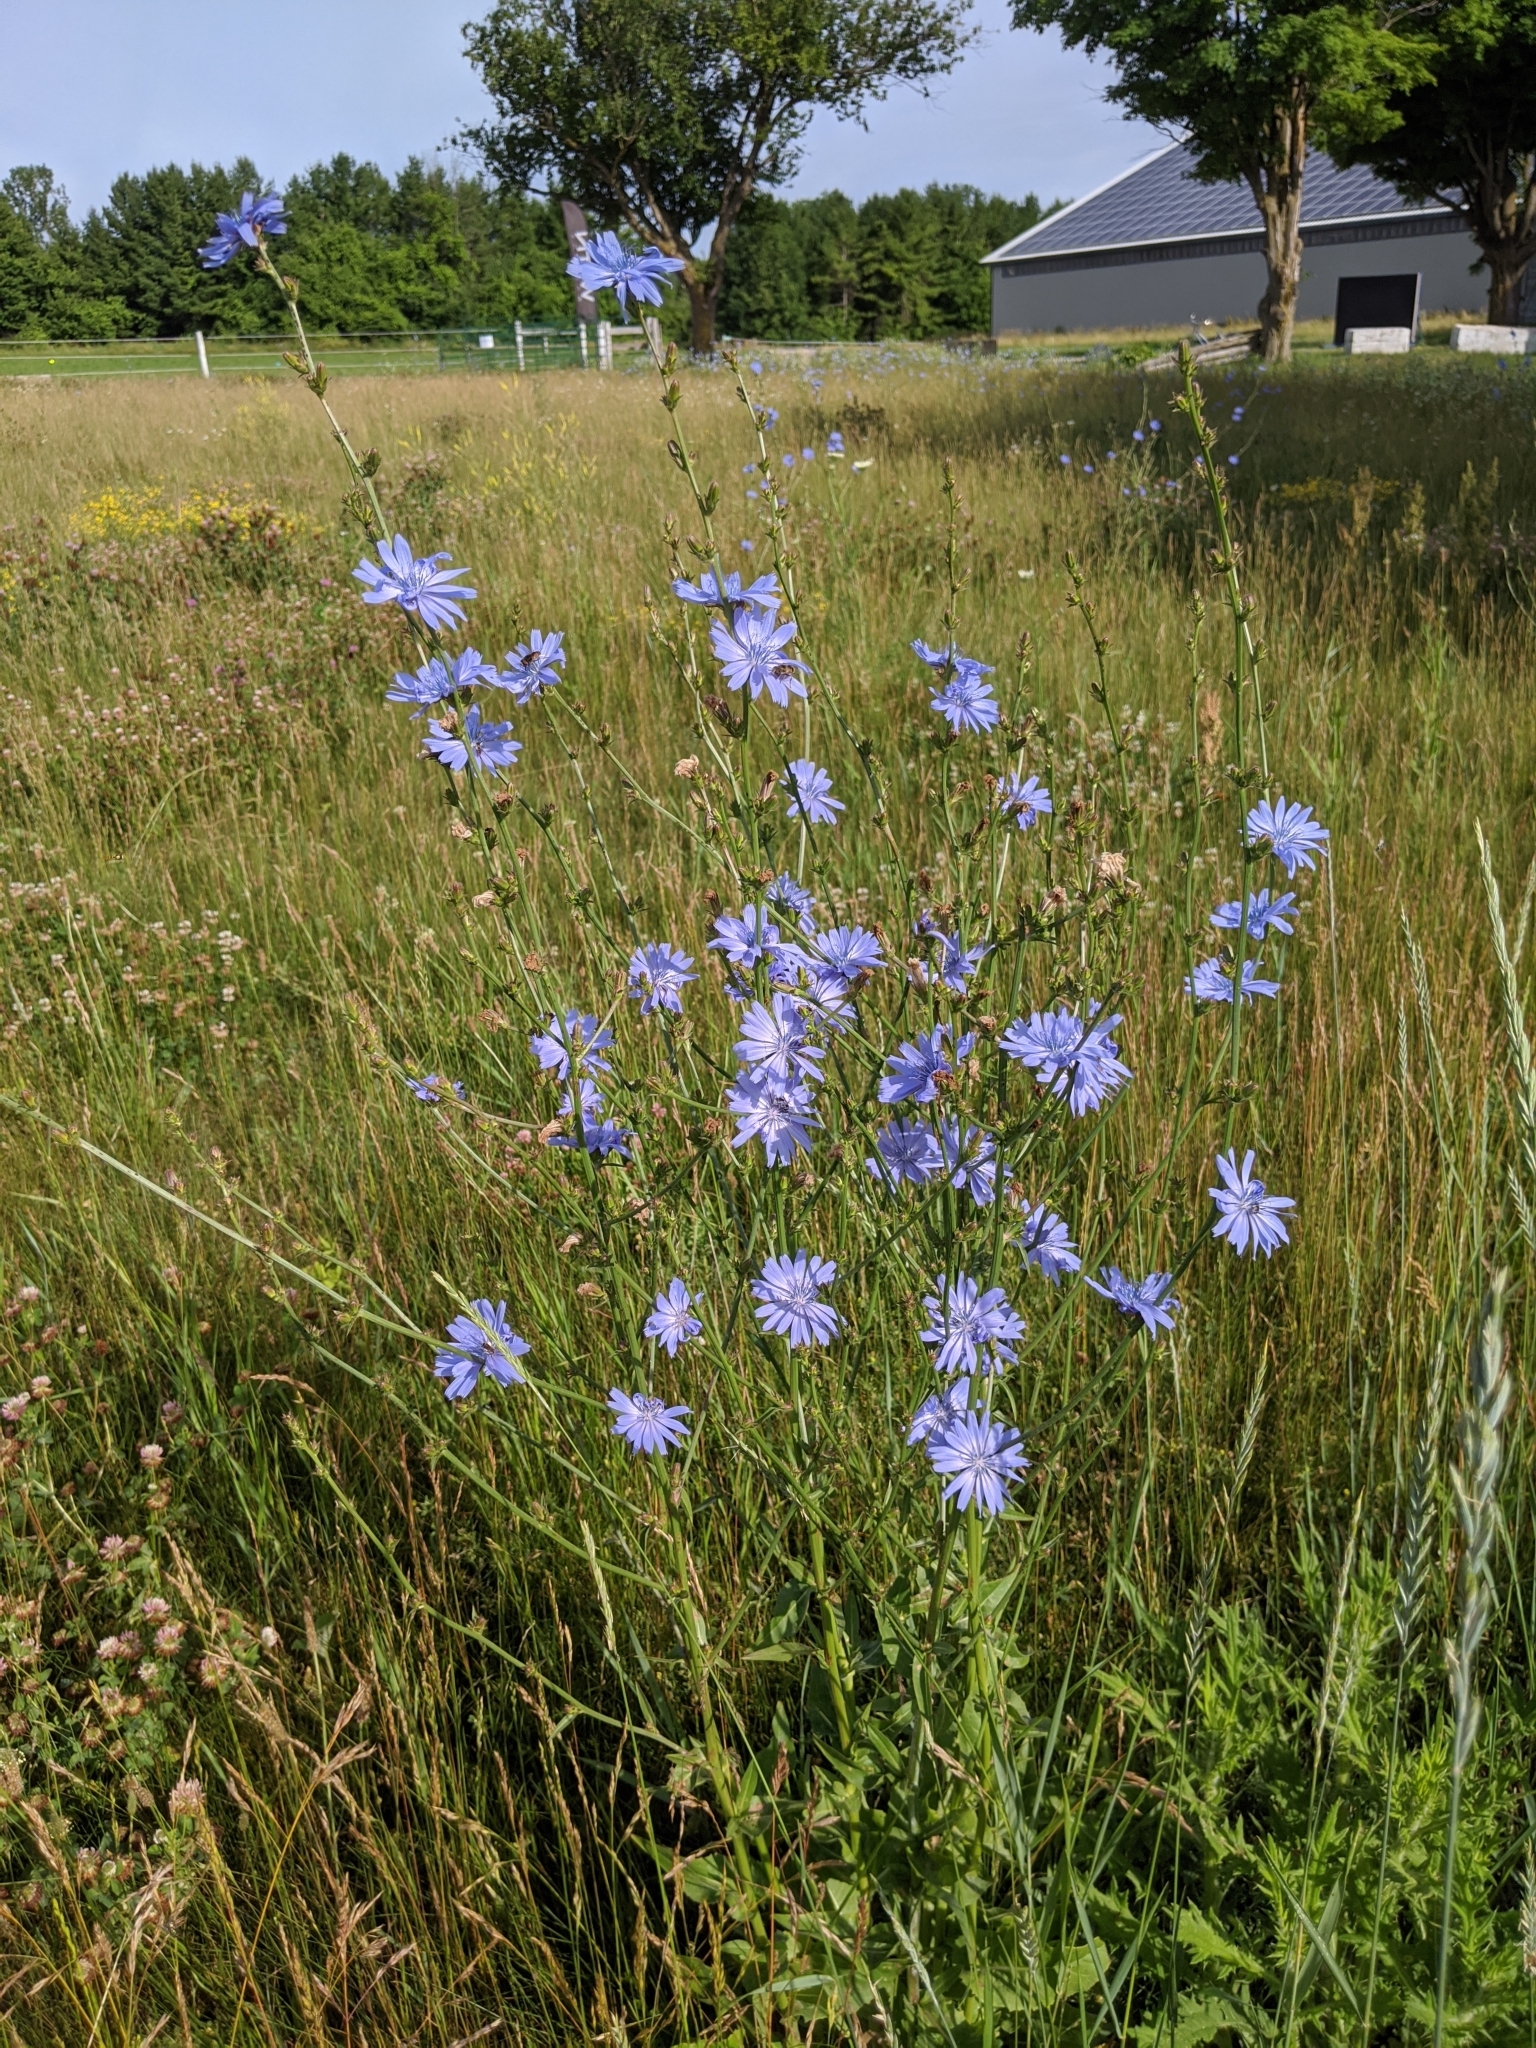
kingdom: Plantae
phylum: Tracheophyta
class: Magnoliopsida
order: Asterales
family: Asteraceae
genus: Cichorium
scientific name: Cichorium intybus
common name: Chicory
